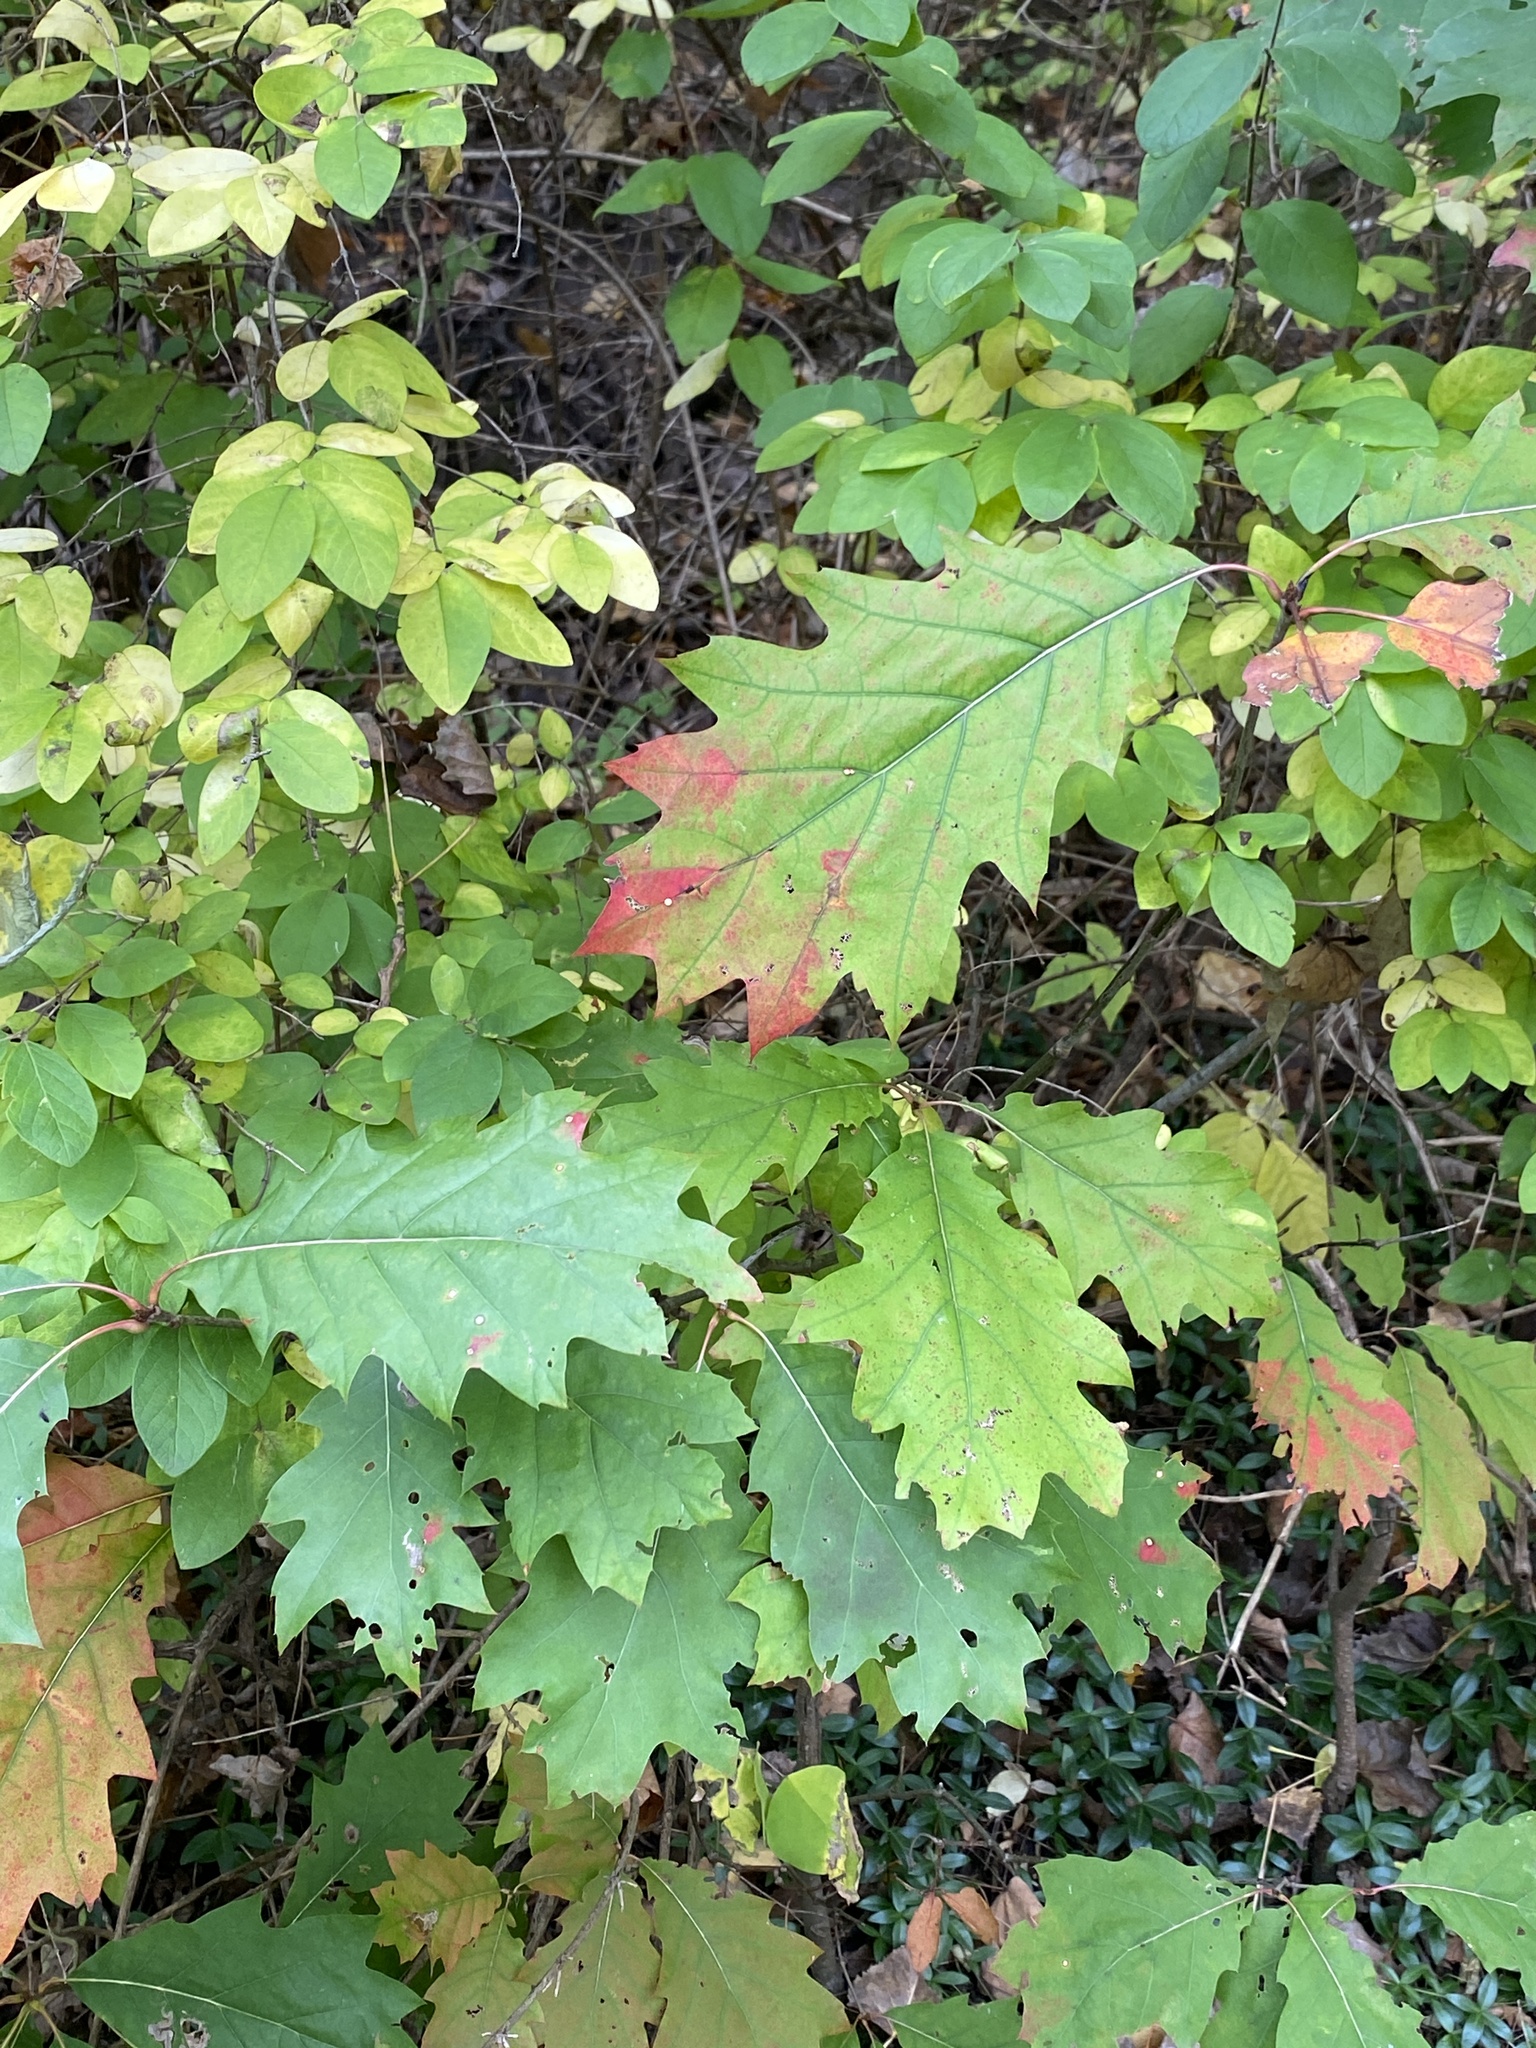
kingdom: Plantae
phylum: Tracheophyta
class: Magnoliopsida
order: Fagales
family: Fagaceae
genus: Quercus
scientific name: Quercus rubra
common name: Red oak
